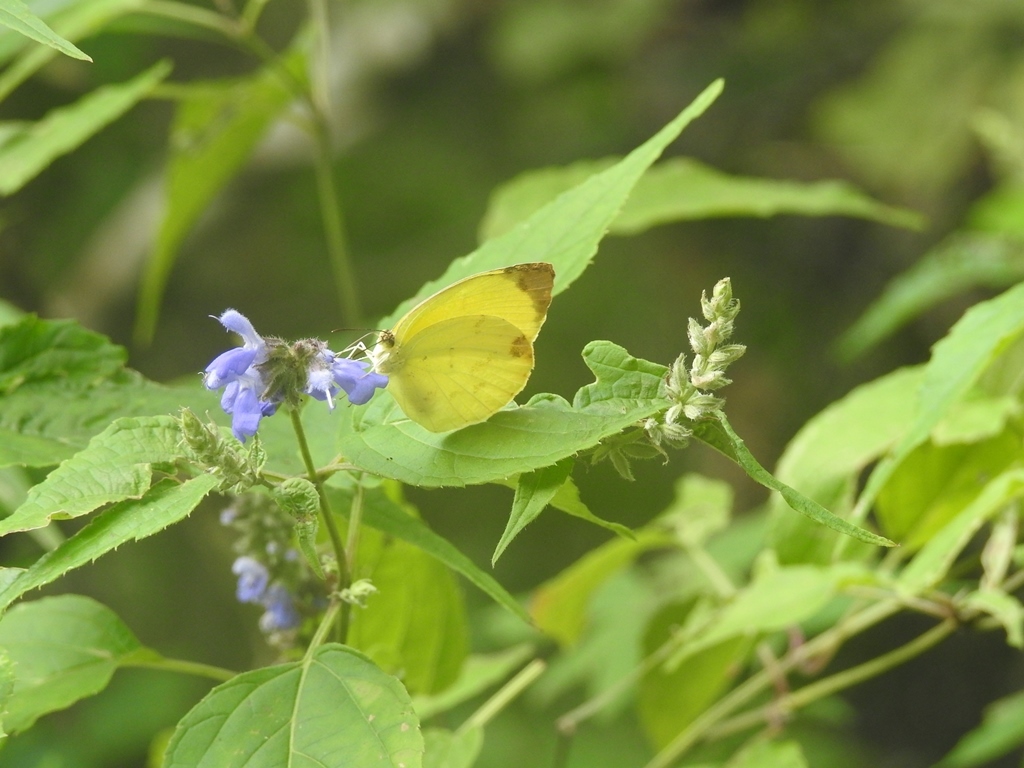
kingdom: Animalia
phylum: Arthropoda
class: Insecta
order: Lepidoptera
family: Pieridae
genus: Pyrisitia
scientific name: Pyrisitia nise
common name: Mimosa yellow
